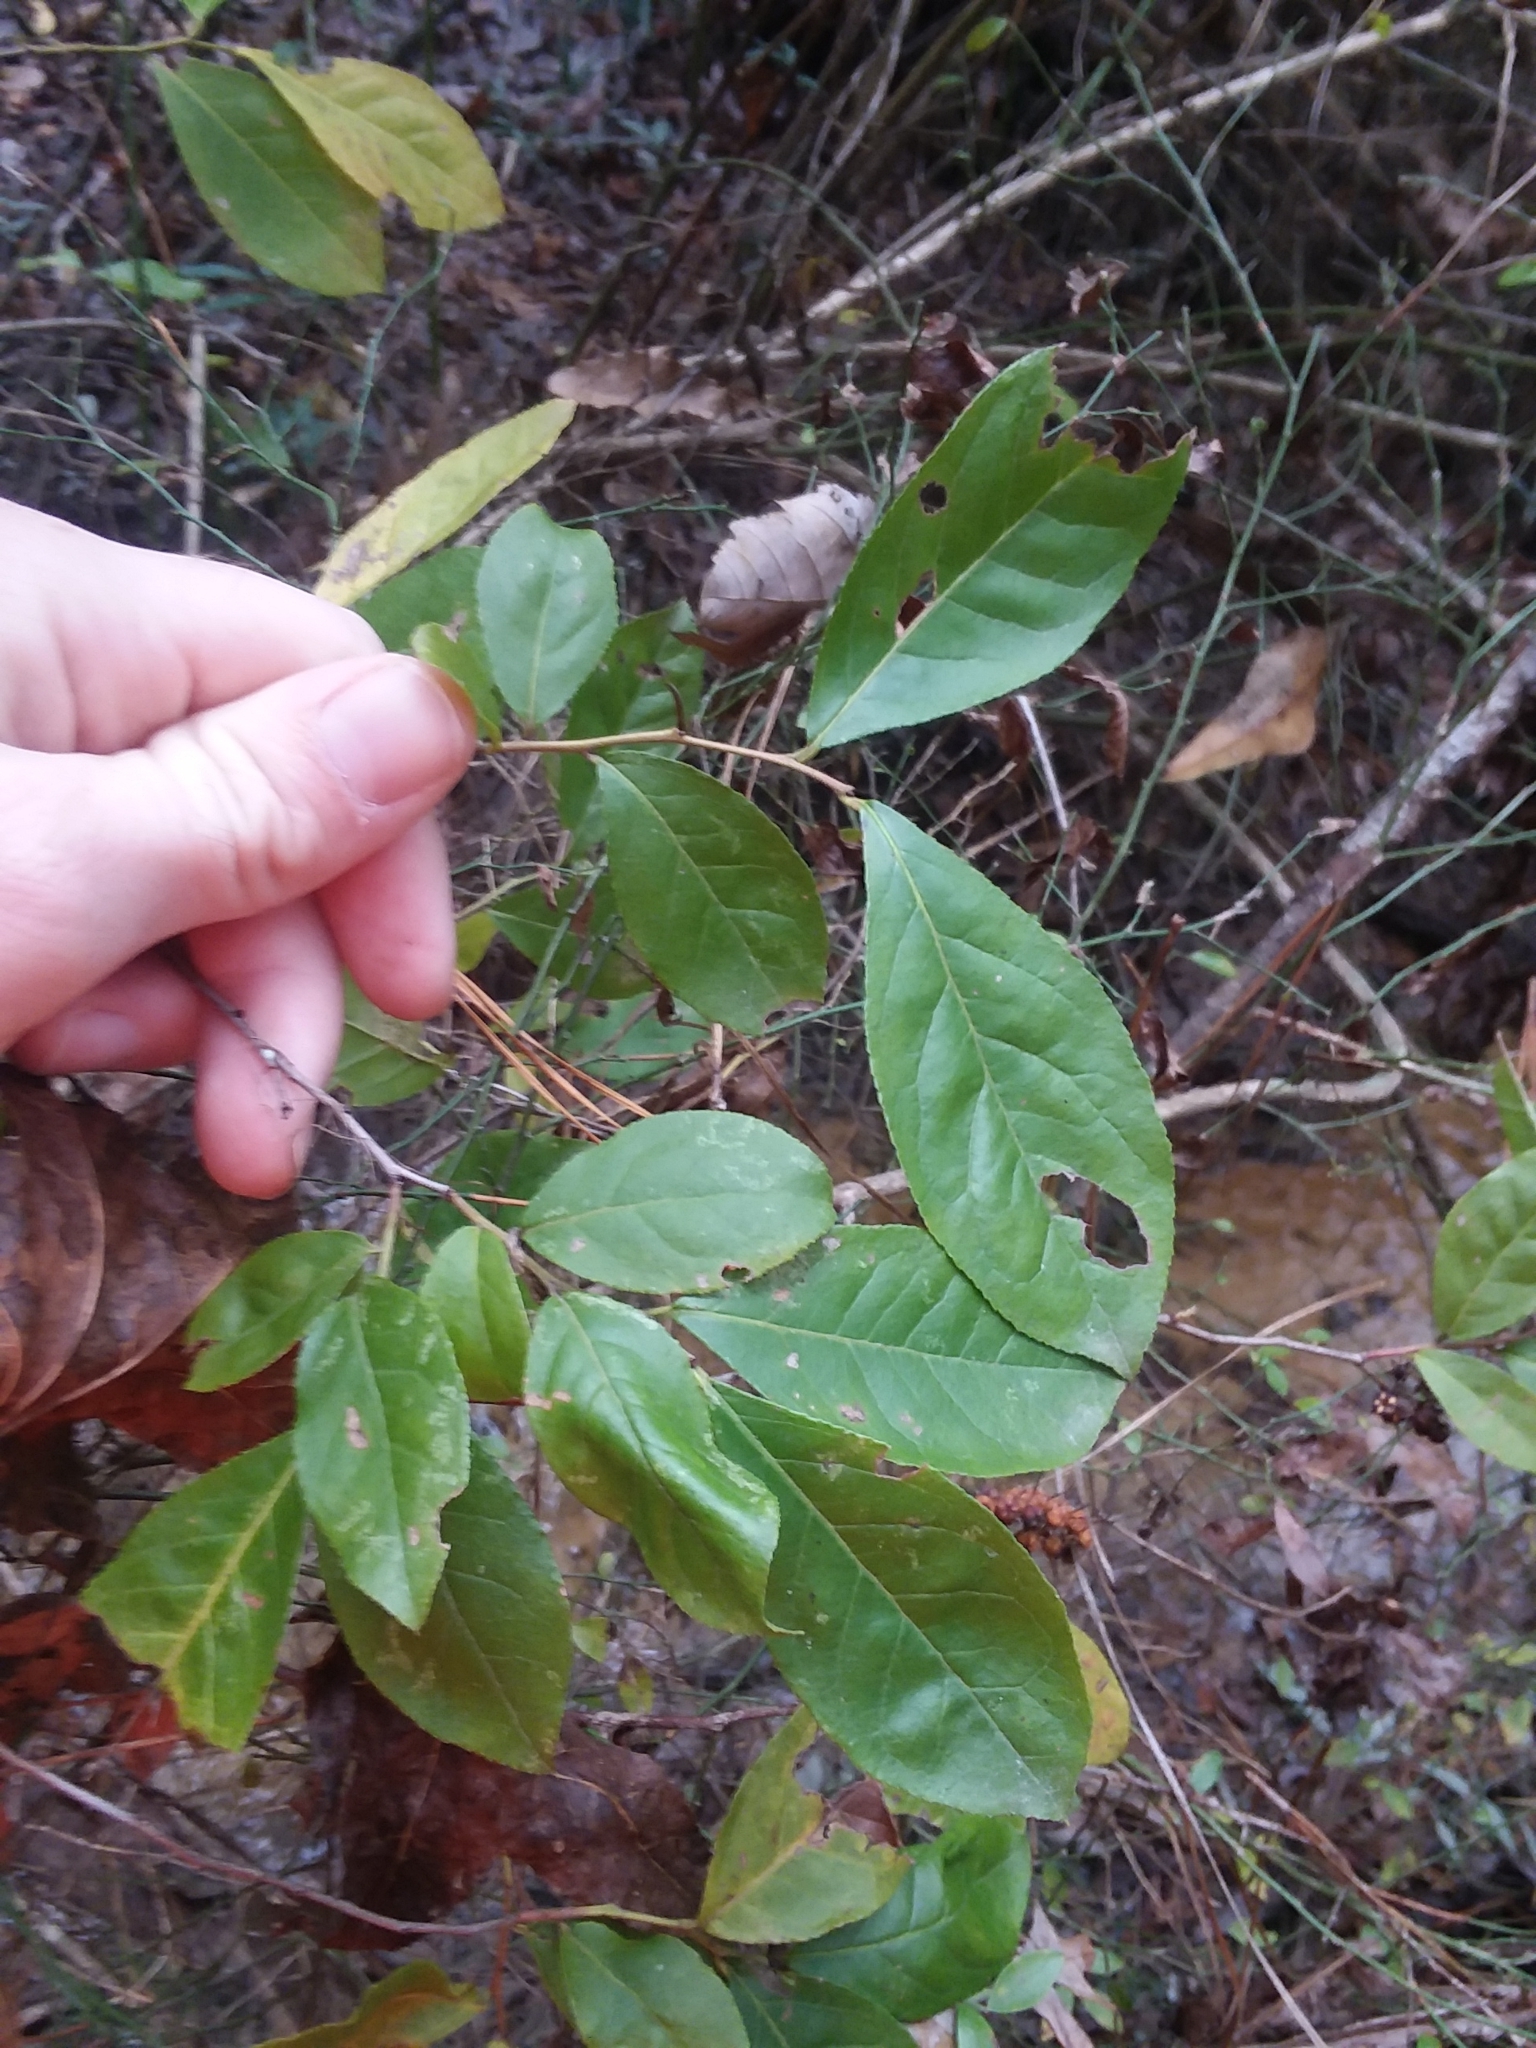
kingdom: Plantae
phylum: Tracheophyta
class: Magnoliopsida
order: Ericales
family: Ericaceae
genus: Eubotrys
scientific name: Eubotrys racemosa
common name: Fetterbush
